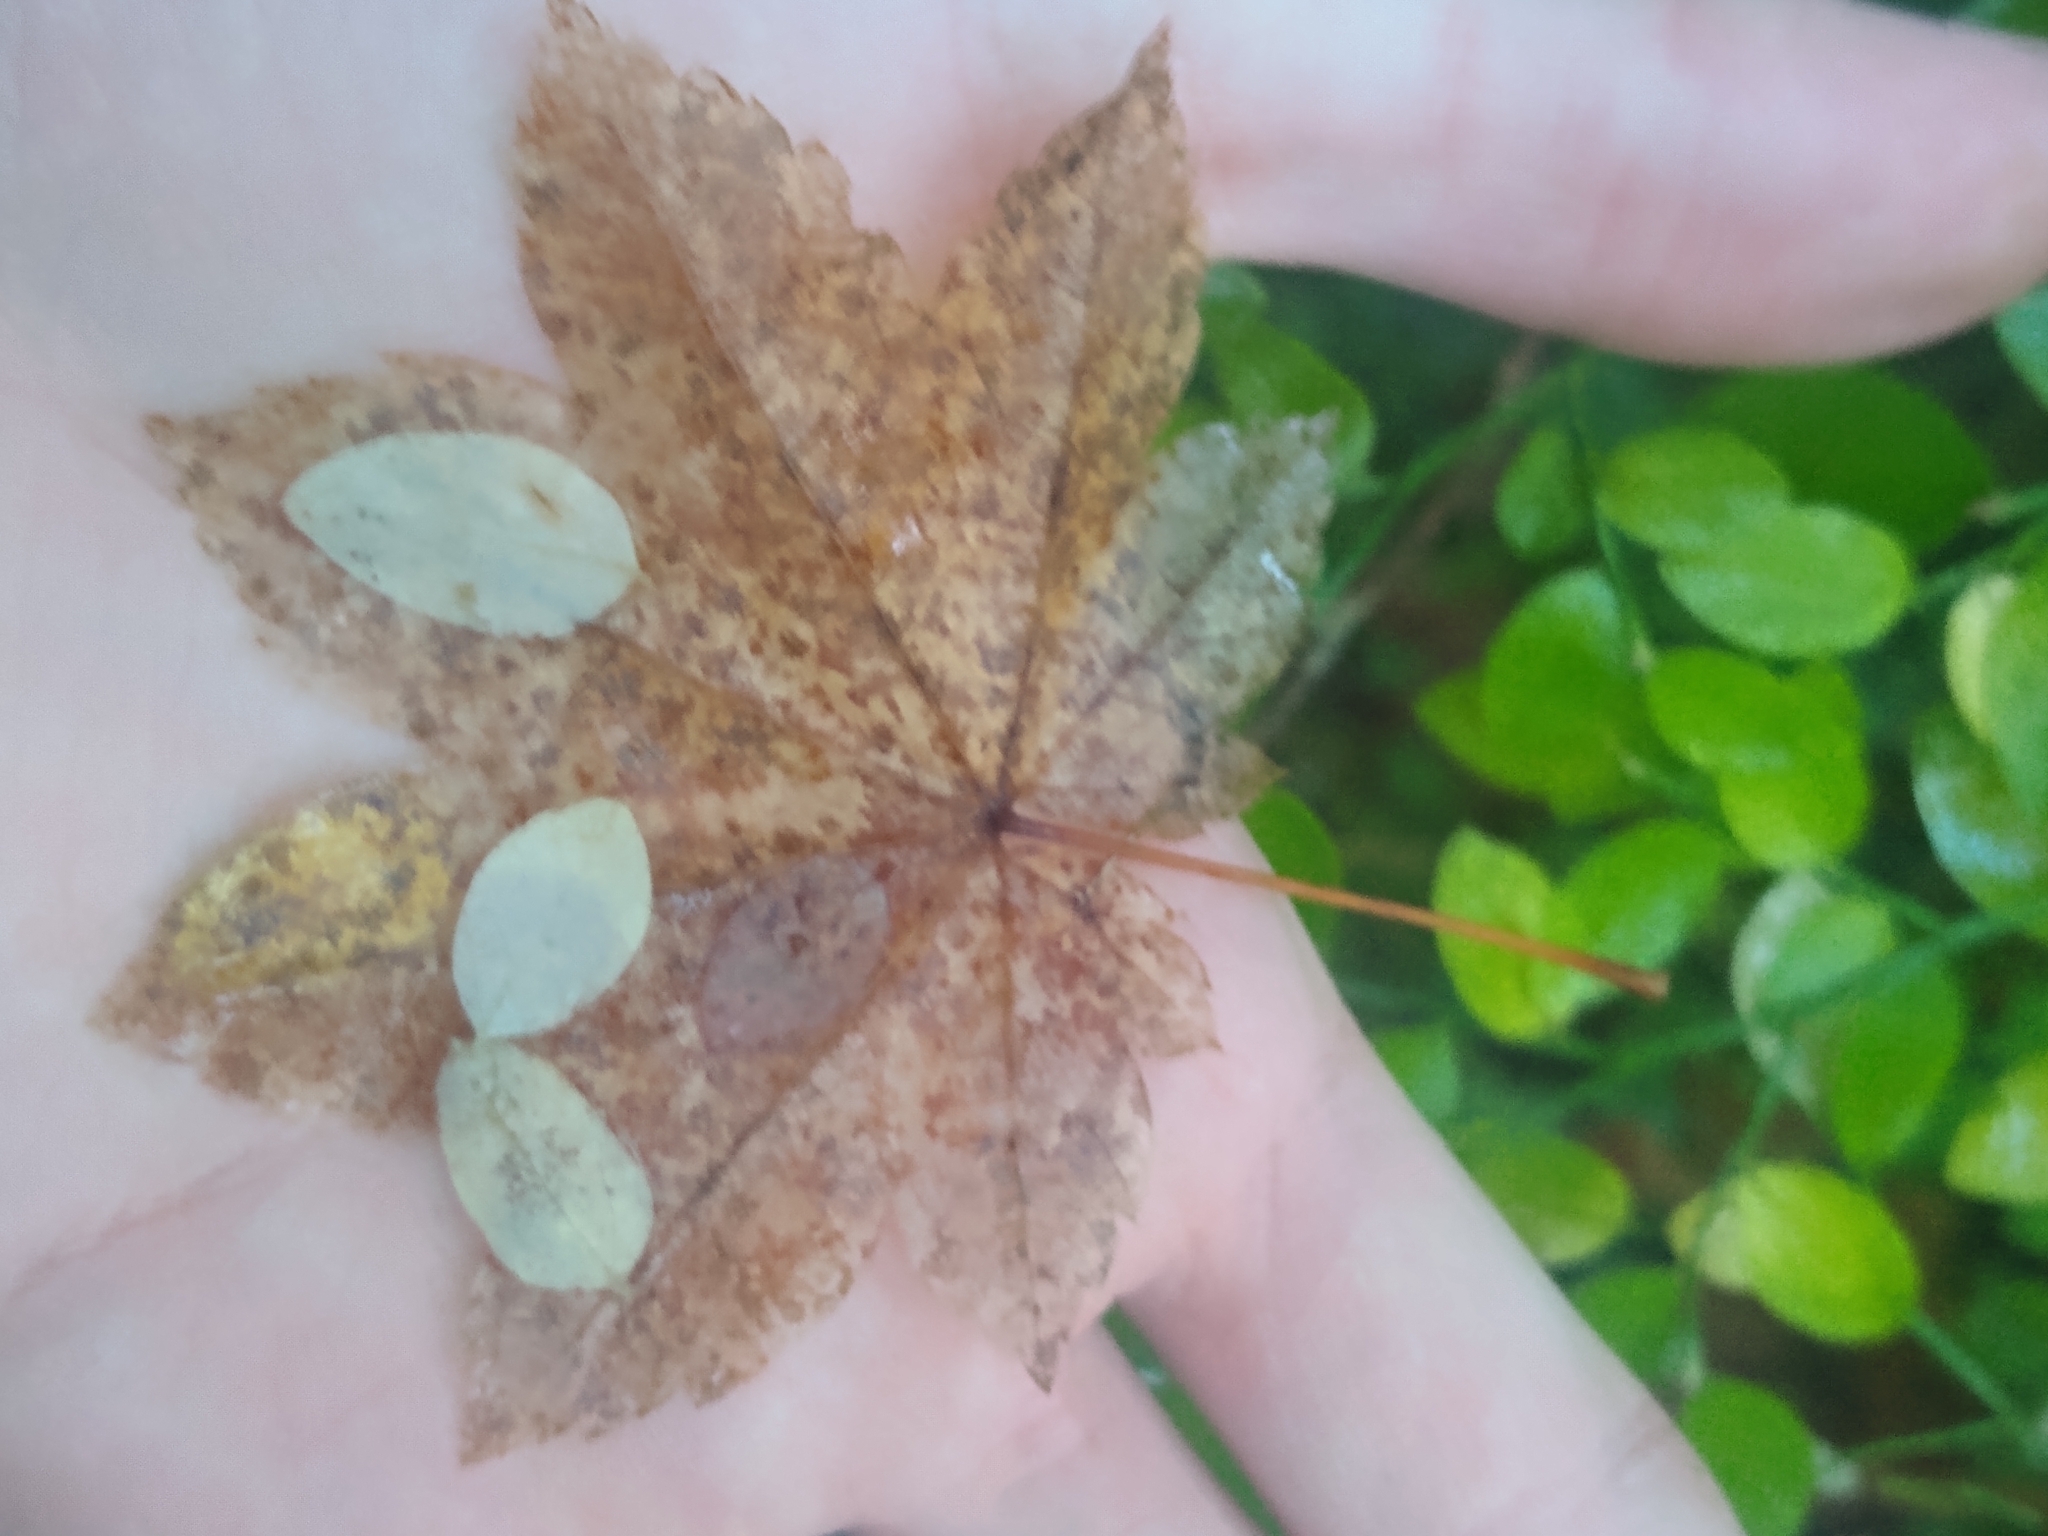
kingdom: Plantae
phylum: Tracheophyta
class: Magnoliopsida
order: Sapindales
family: Sapindaceae
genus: Acer
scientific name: Acer circinatum
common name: Vine maple
